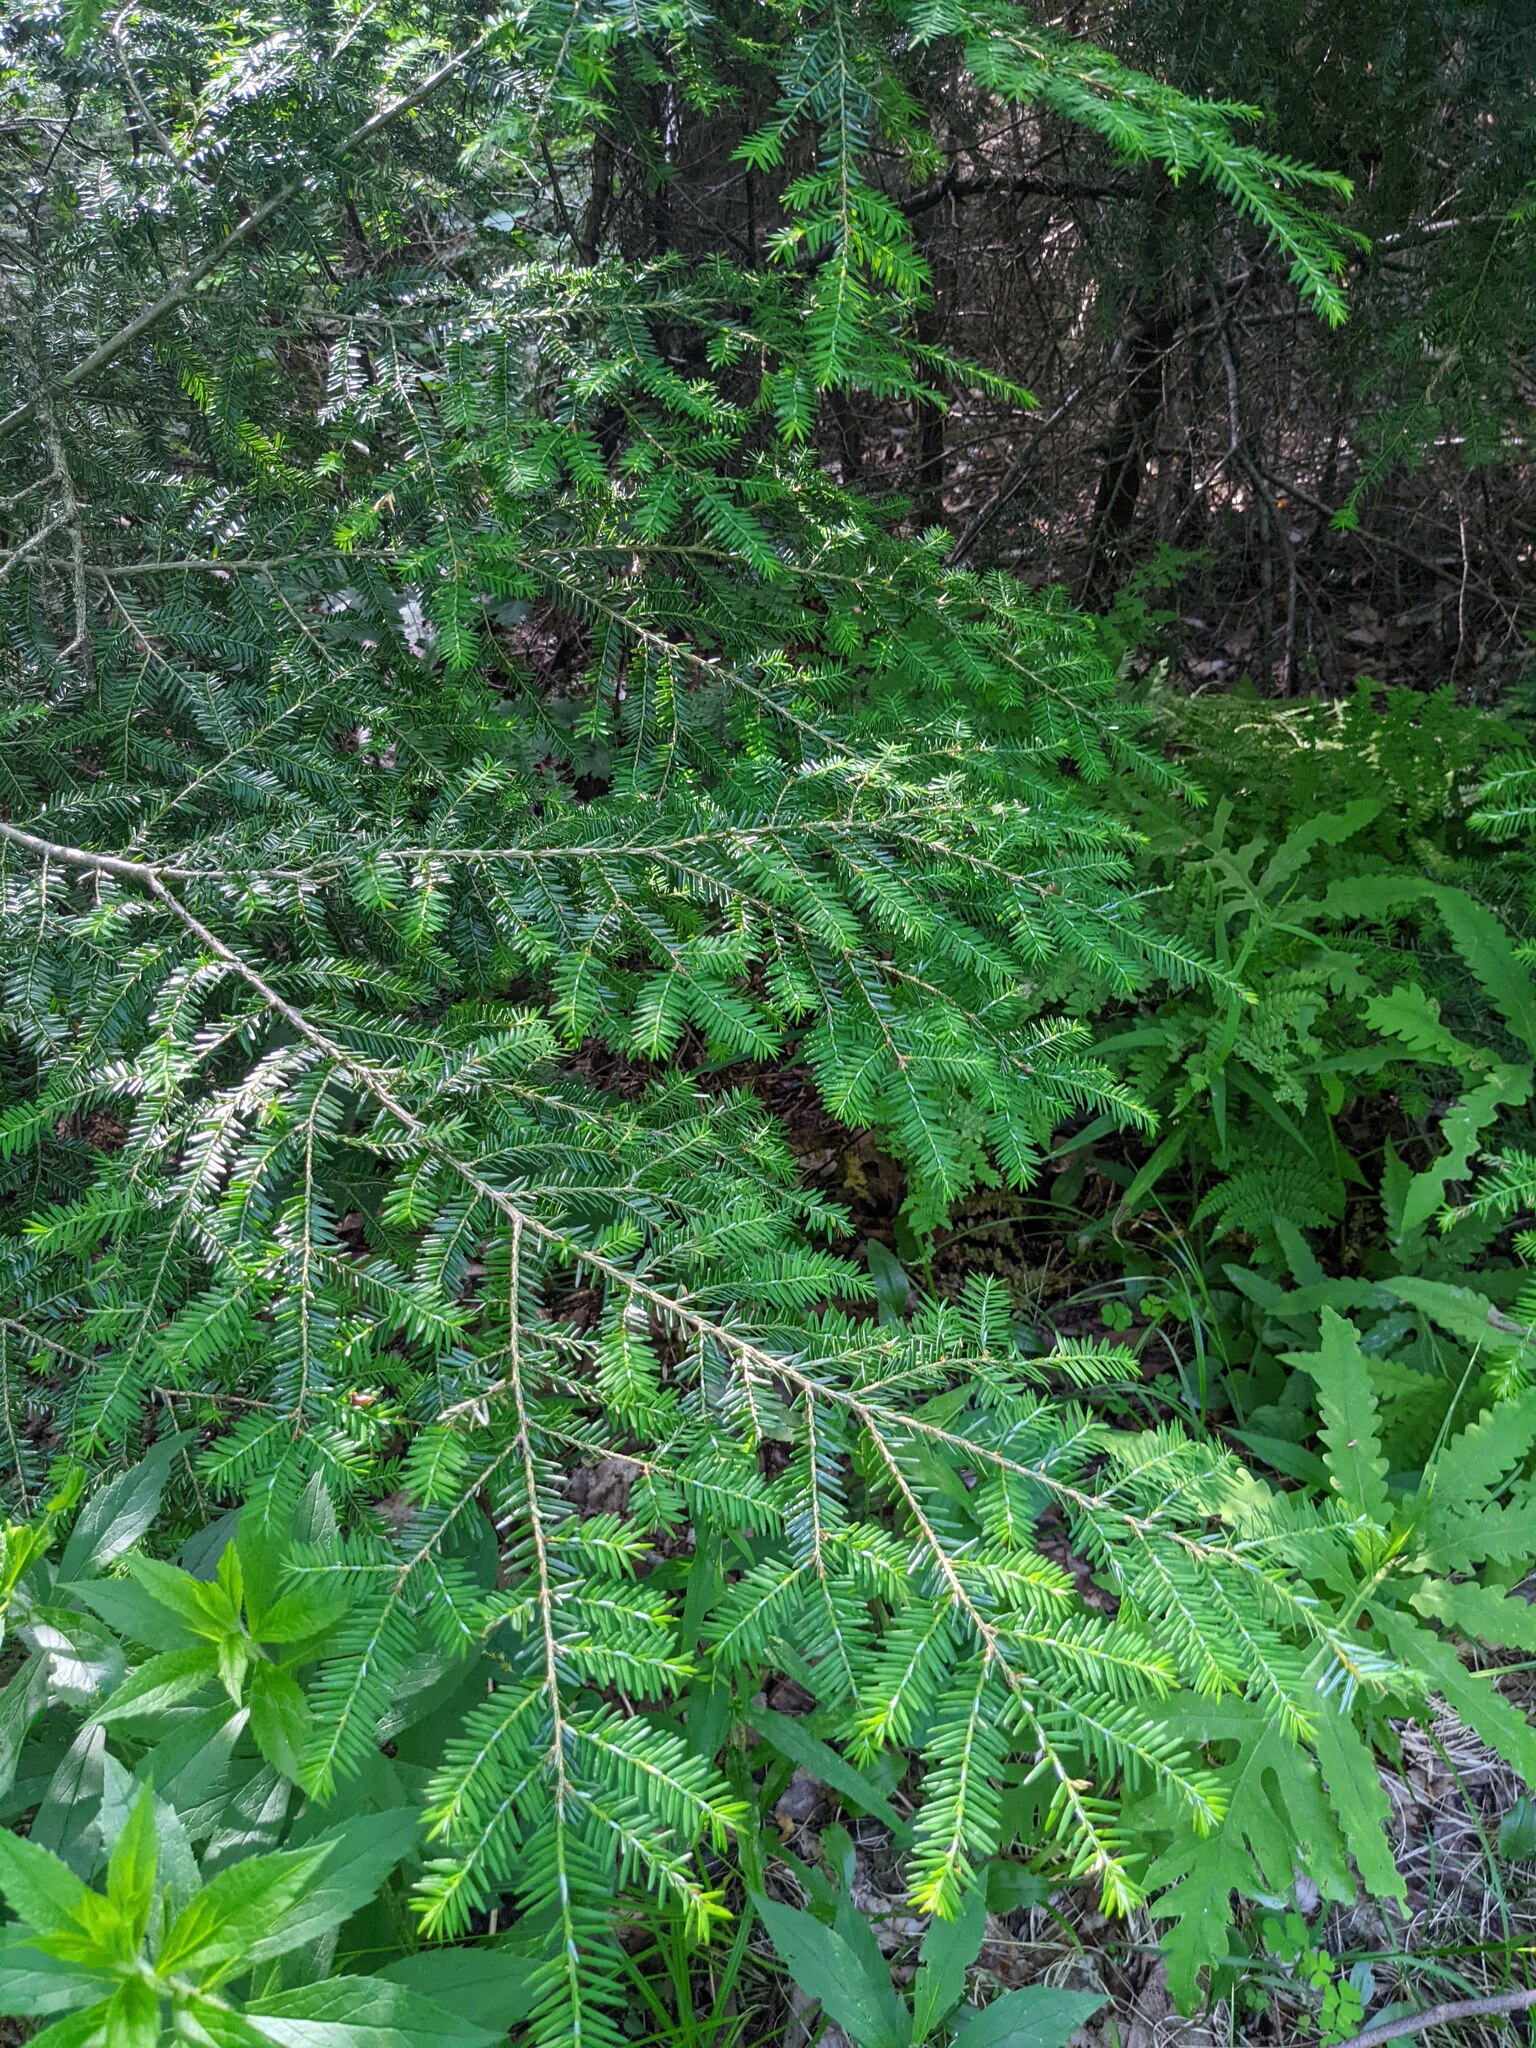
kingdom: Plantae
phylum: Tracheophyta
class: Pinopsida
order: Pinales
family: Pinaceae
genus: Tsuga
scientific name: Tsuga canadensis
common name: Eastern hemlock
